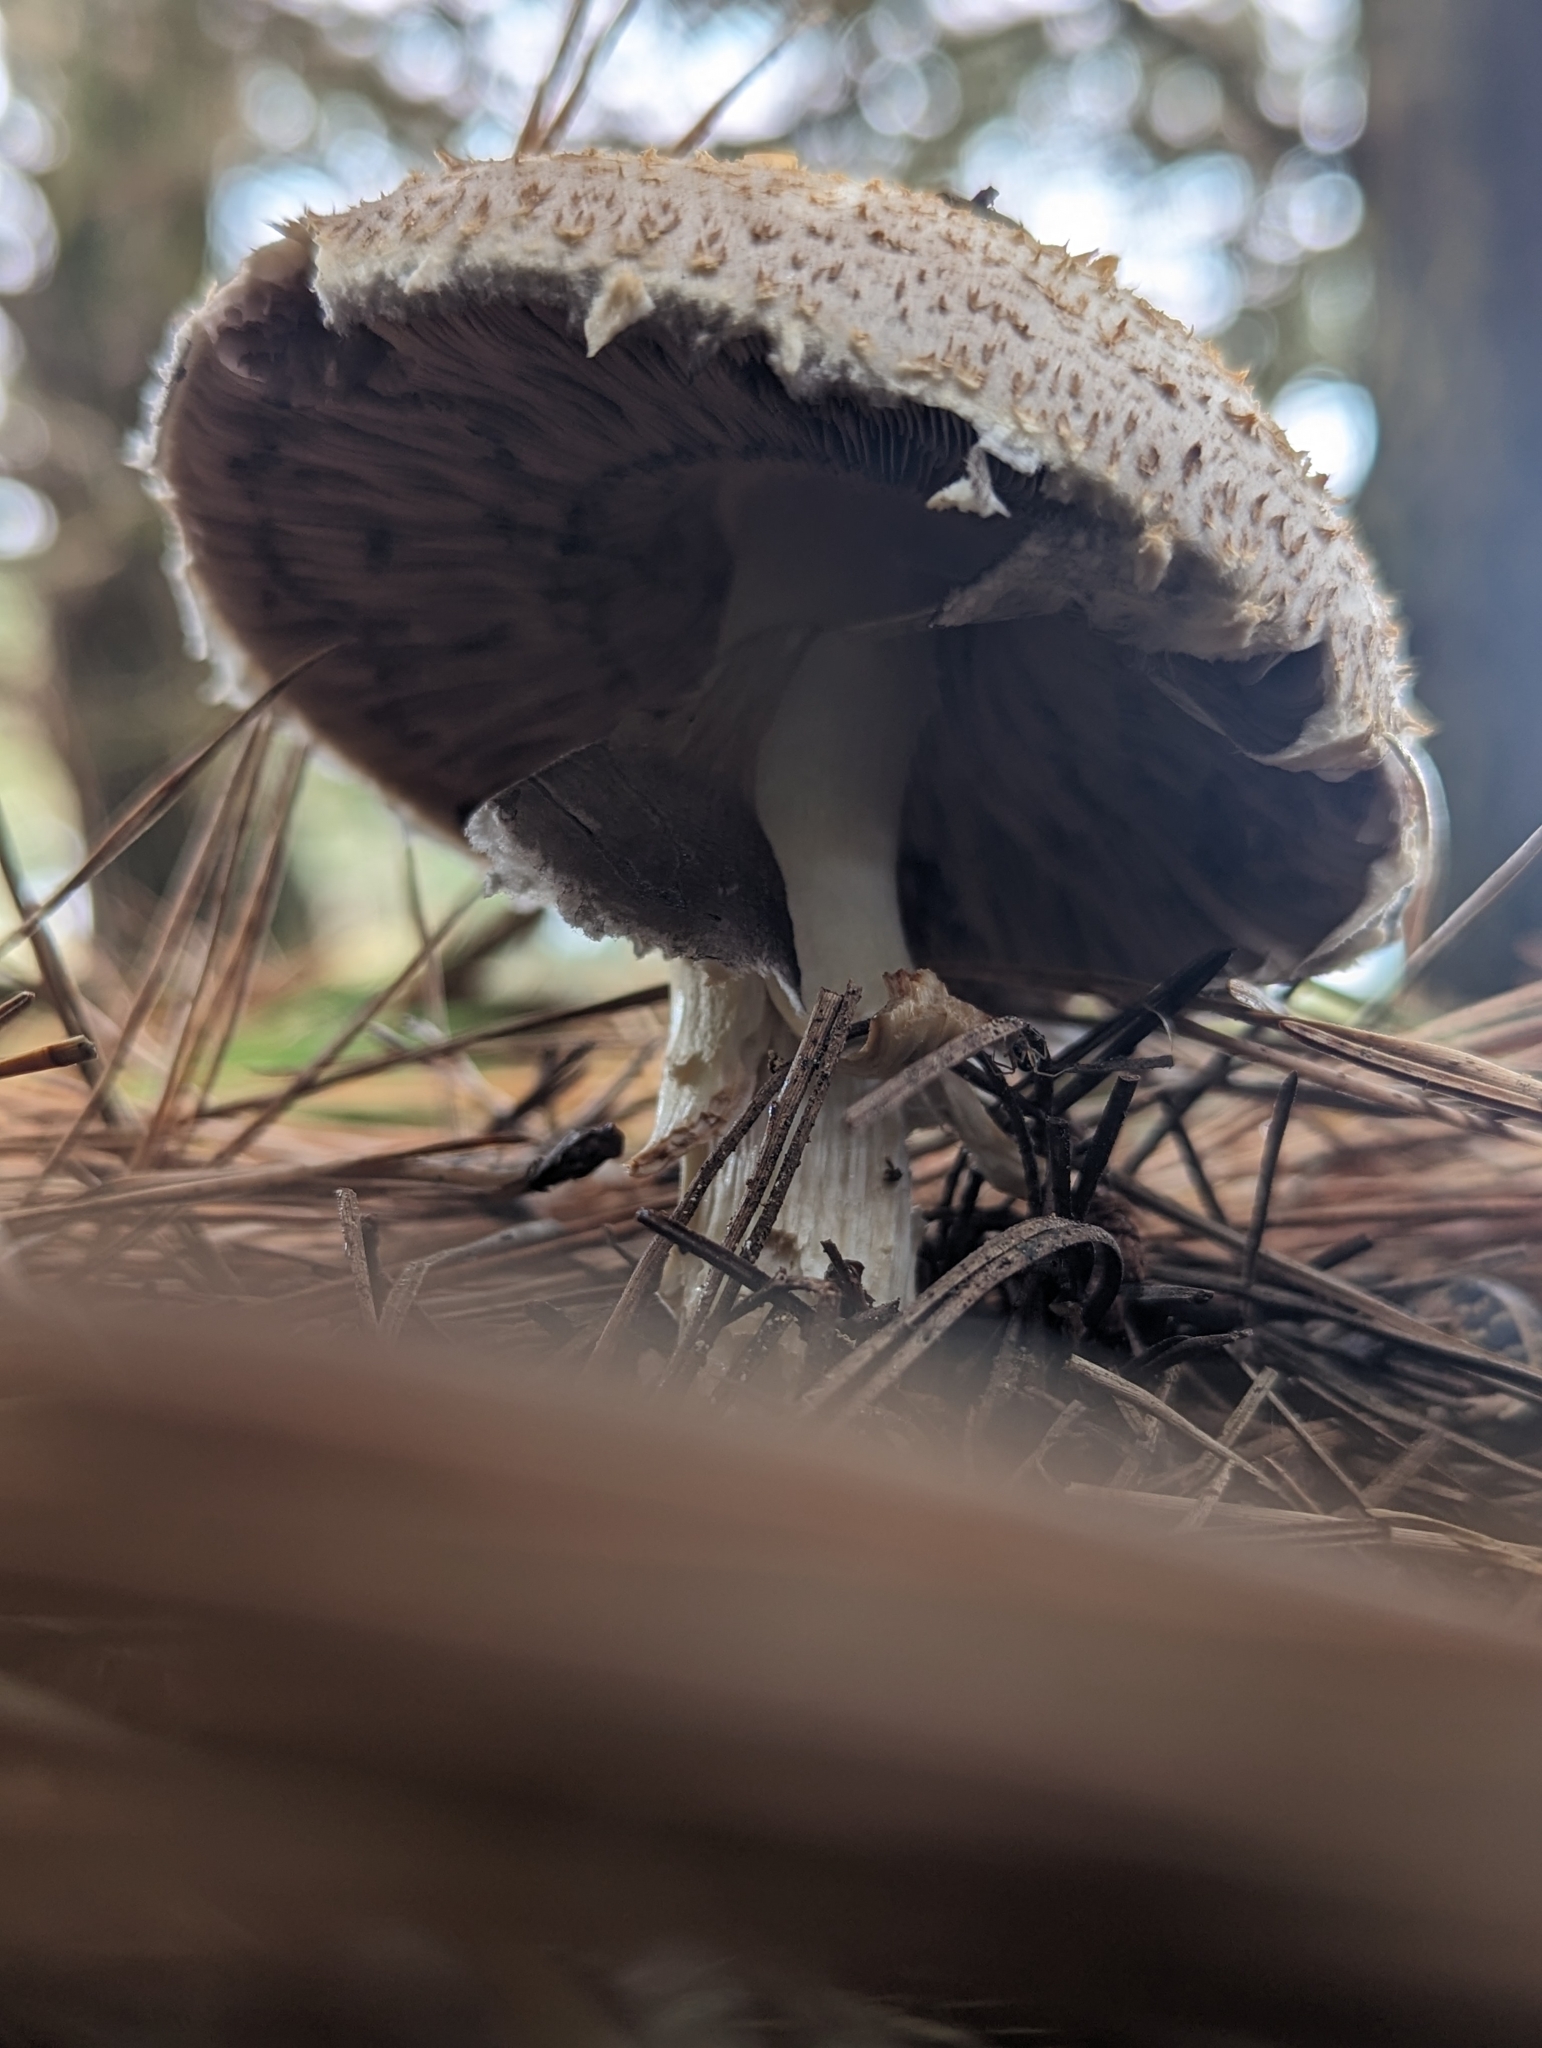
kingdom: Fungi
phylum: Basidiomycota
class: Agaricomycetes
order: Agaricales
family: Agaricaceae
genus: Macrolepiota
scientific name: Macrolepiota procera
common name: Parasol
